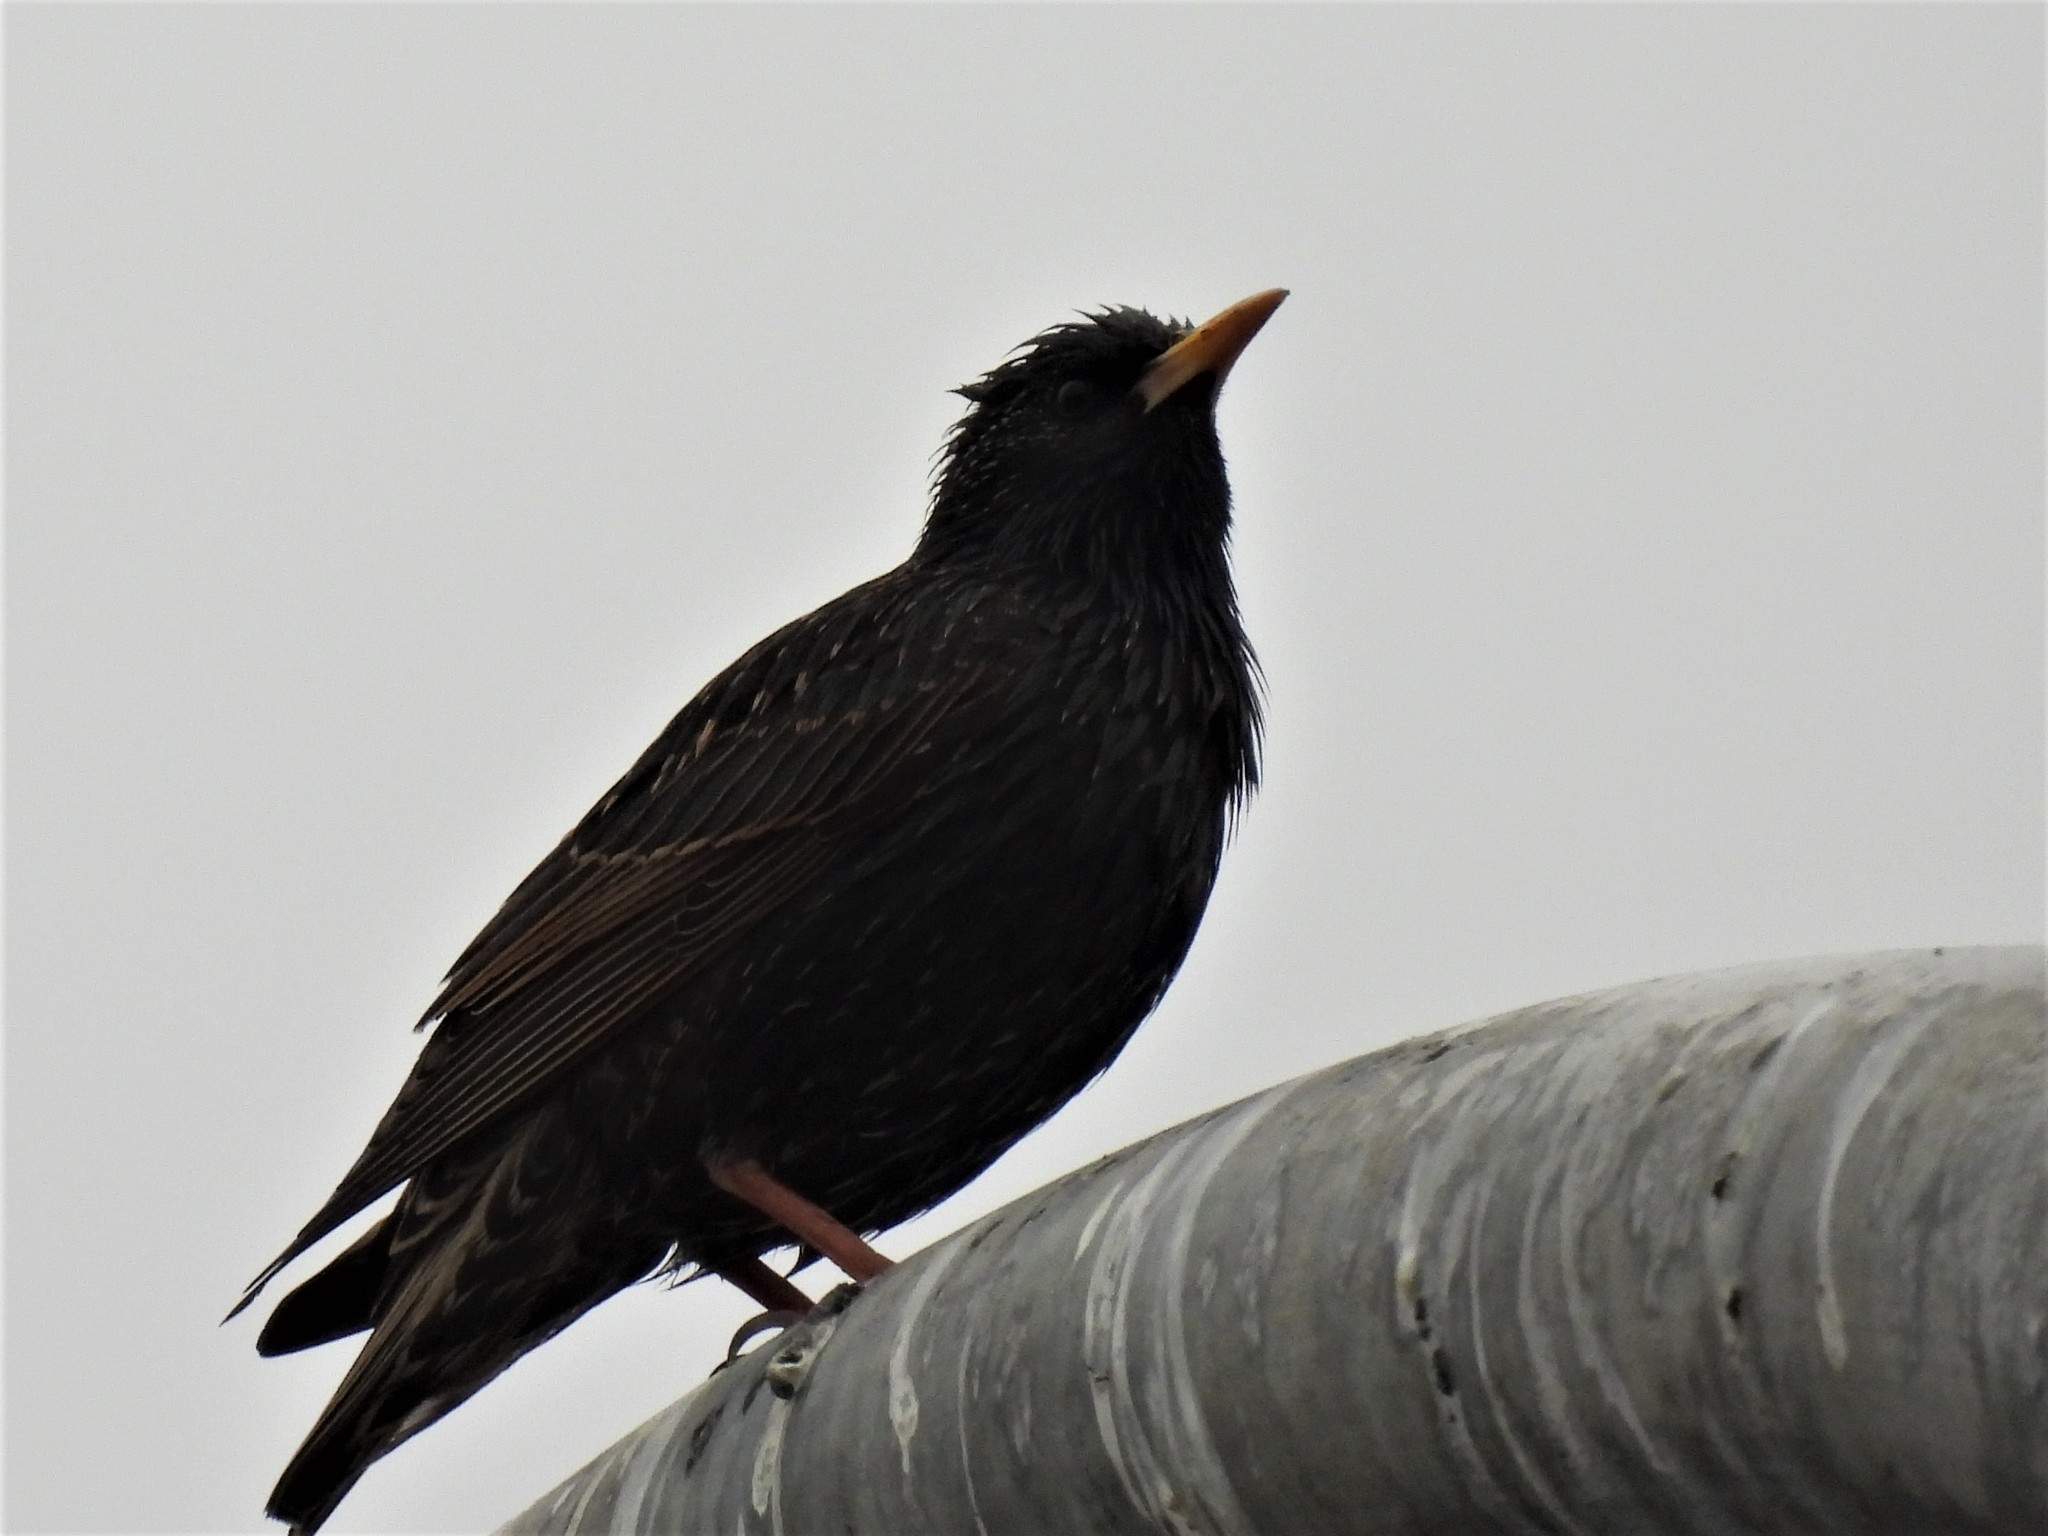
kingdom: Animalia
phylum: Chordata
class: Aves
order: Passeriformes
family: Sturnidae
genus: Sturnus
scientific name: Sturnus vulgaris
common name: Common starling
